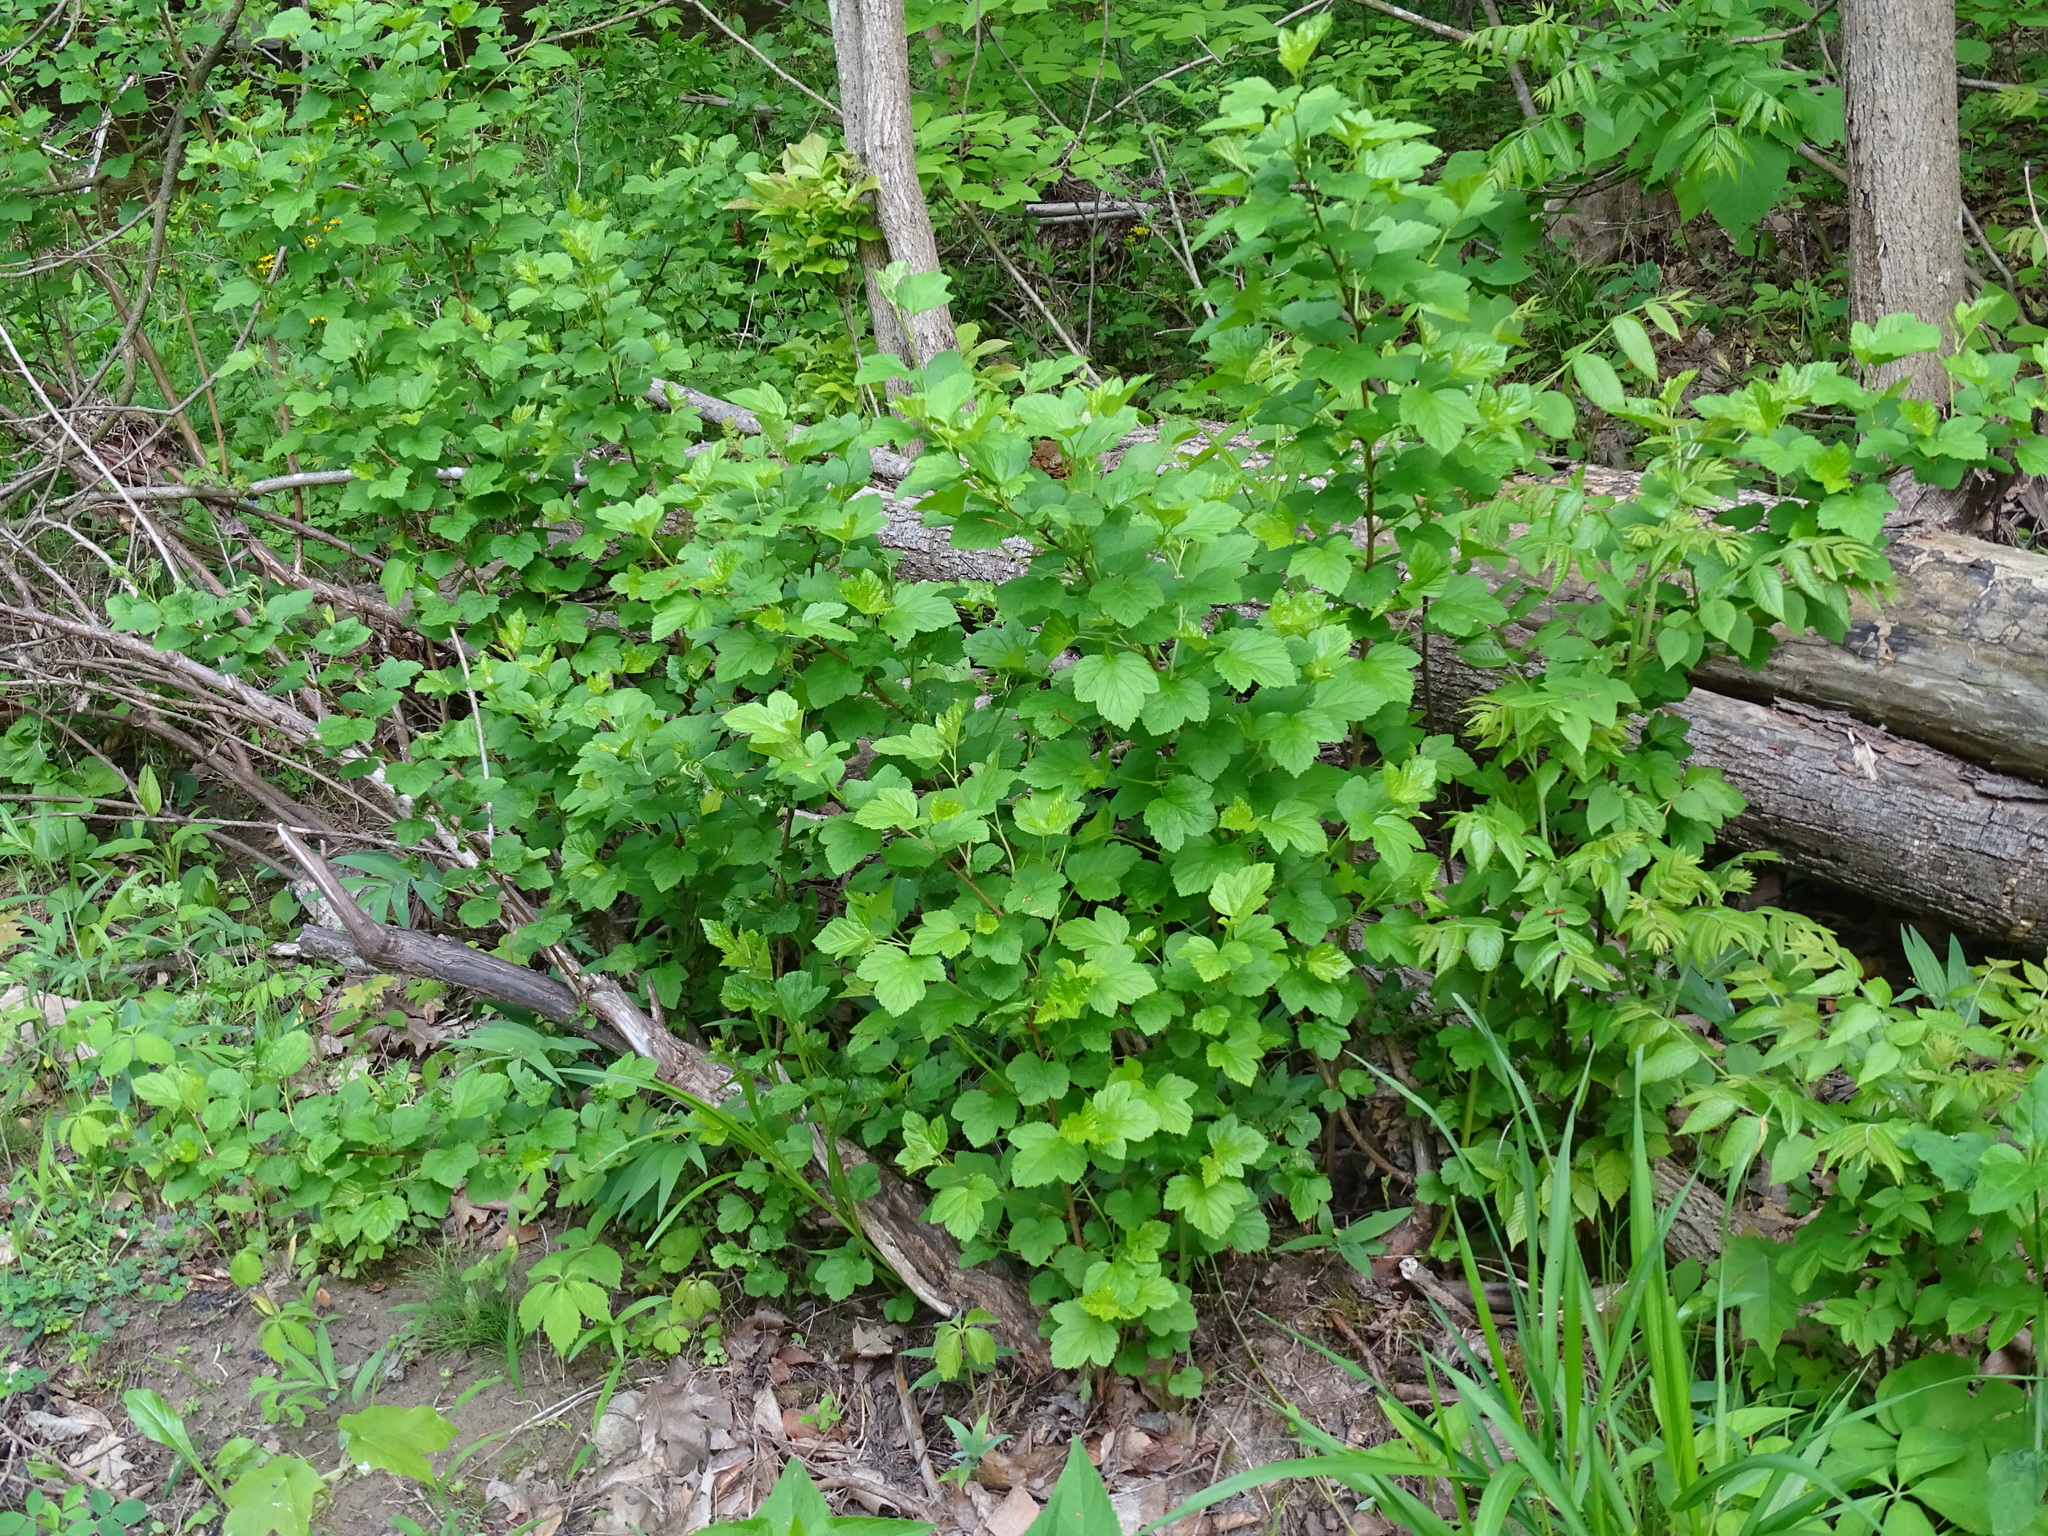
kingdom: Plantae
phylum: Tracheophyta
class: Magnoliopsida
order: Rosales
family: Rosaceae
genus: Physocarpus
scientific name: Physocarpus opulifolius
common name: Ninebark
